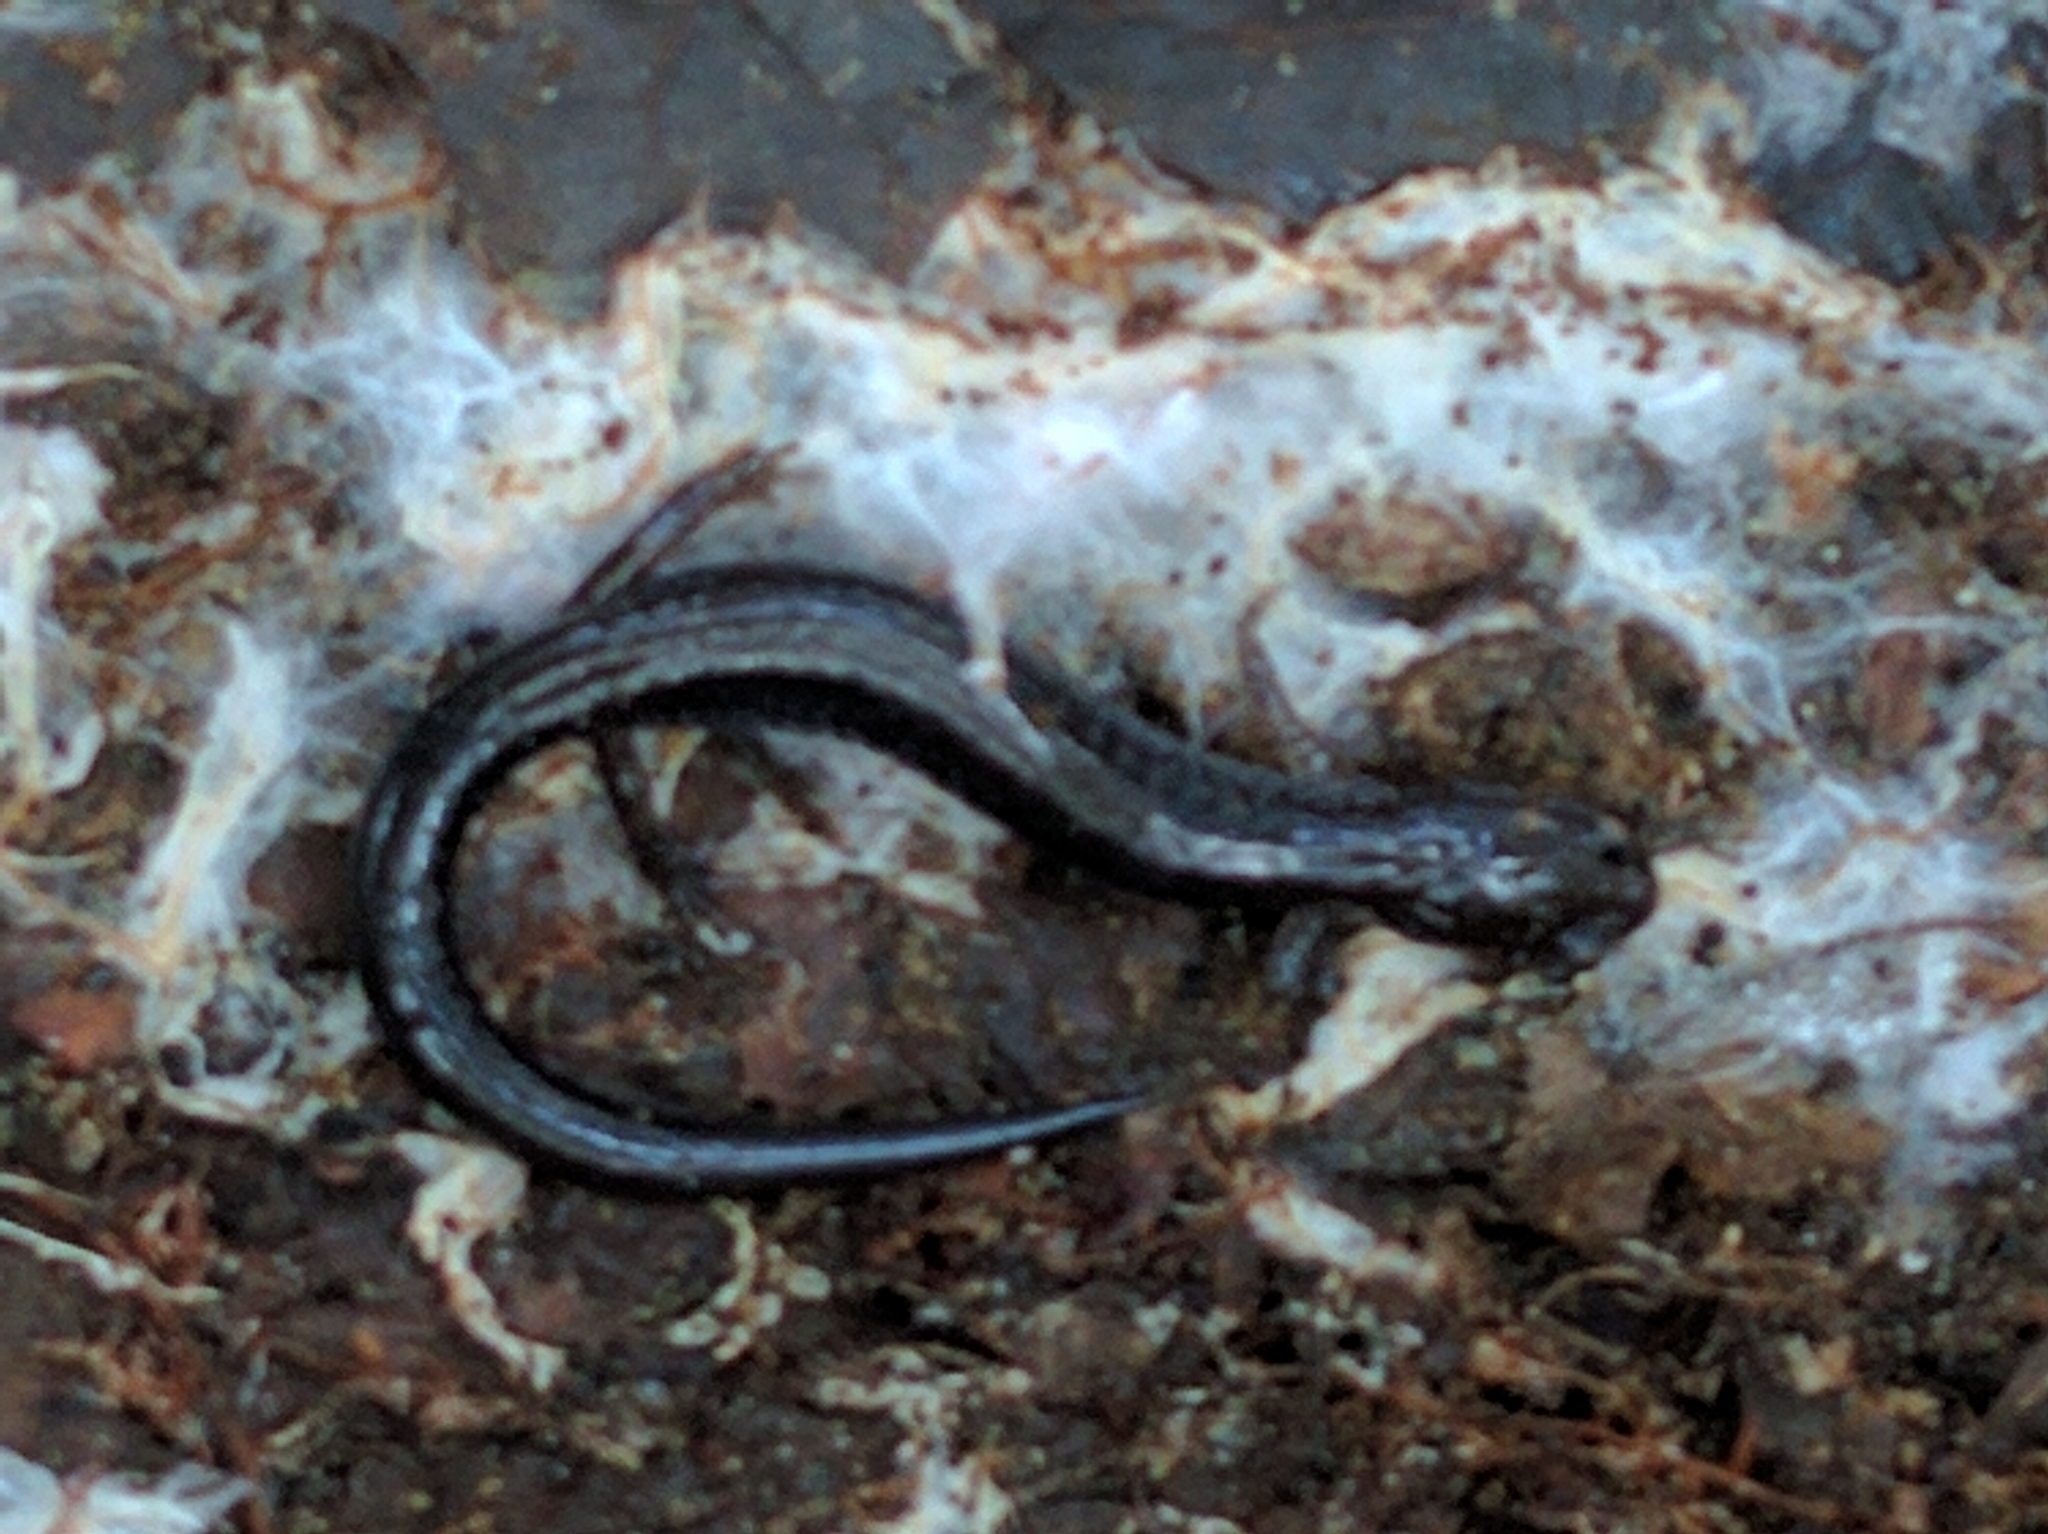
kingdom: Animalia
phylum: Chordata
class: Amphibia
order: Caudata
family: Plethodontidae
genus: Plethodon
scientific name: Plethodon cinereus
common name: Redback salamander
